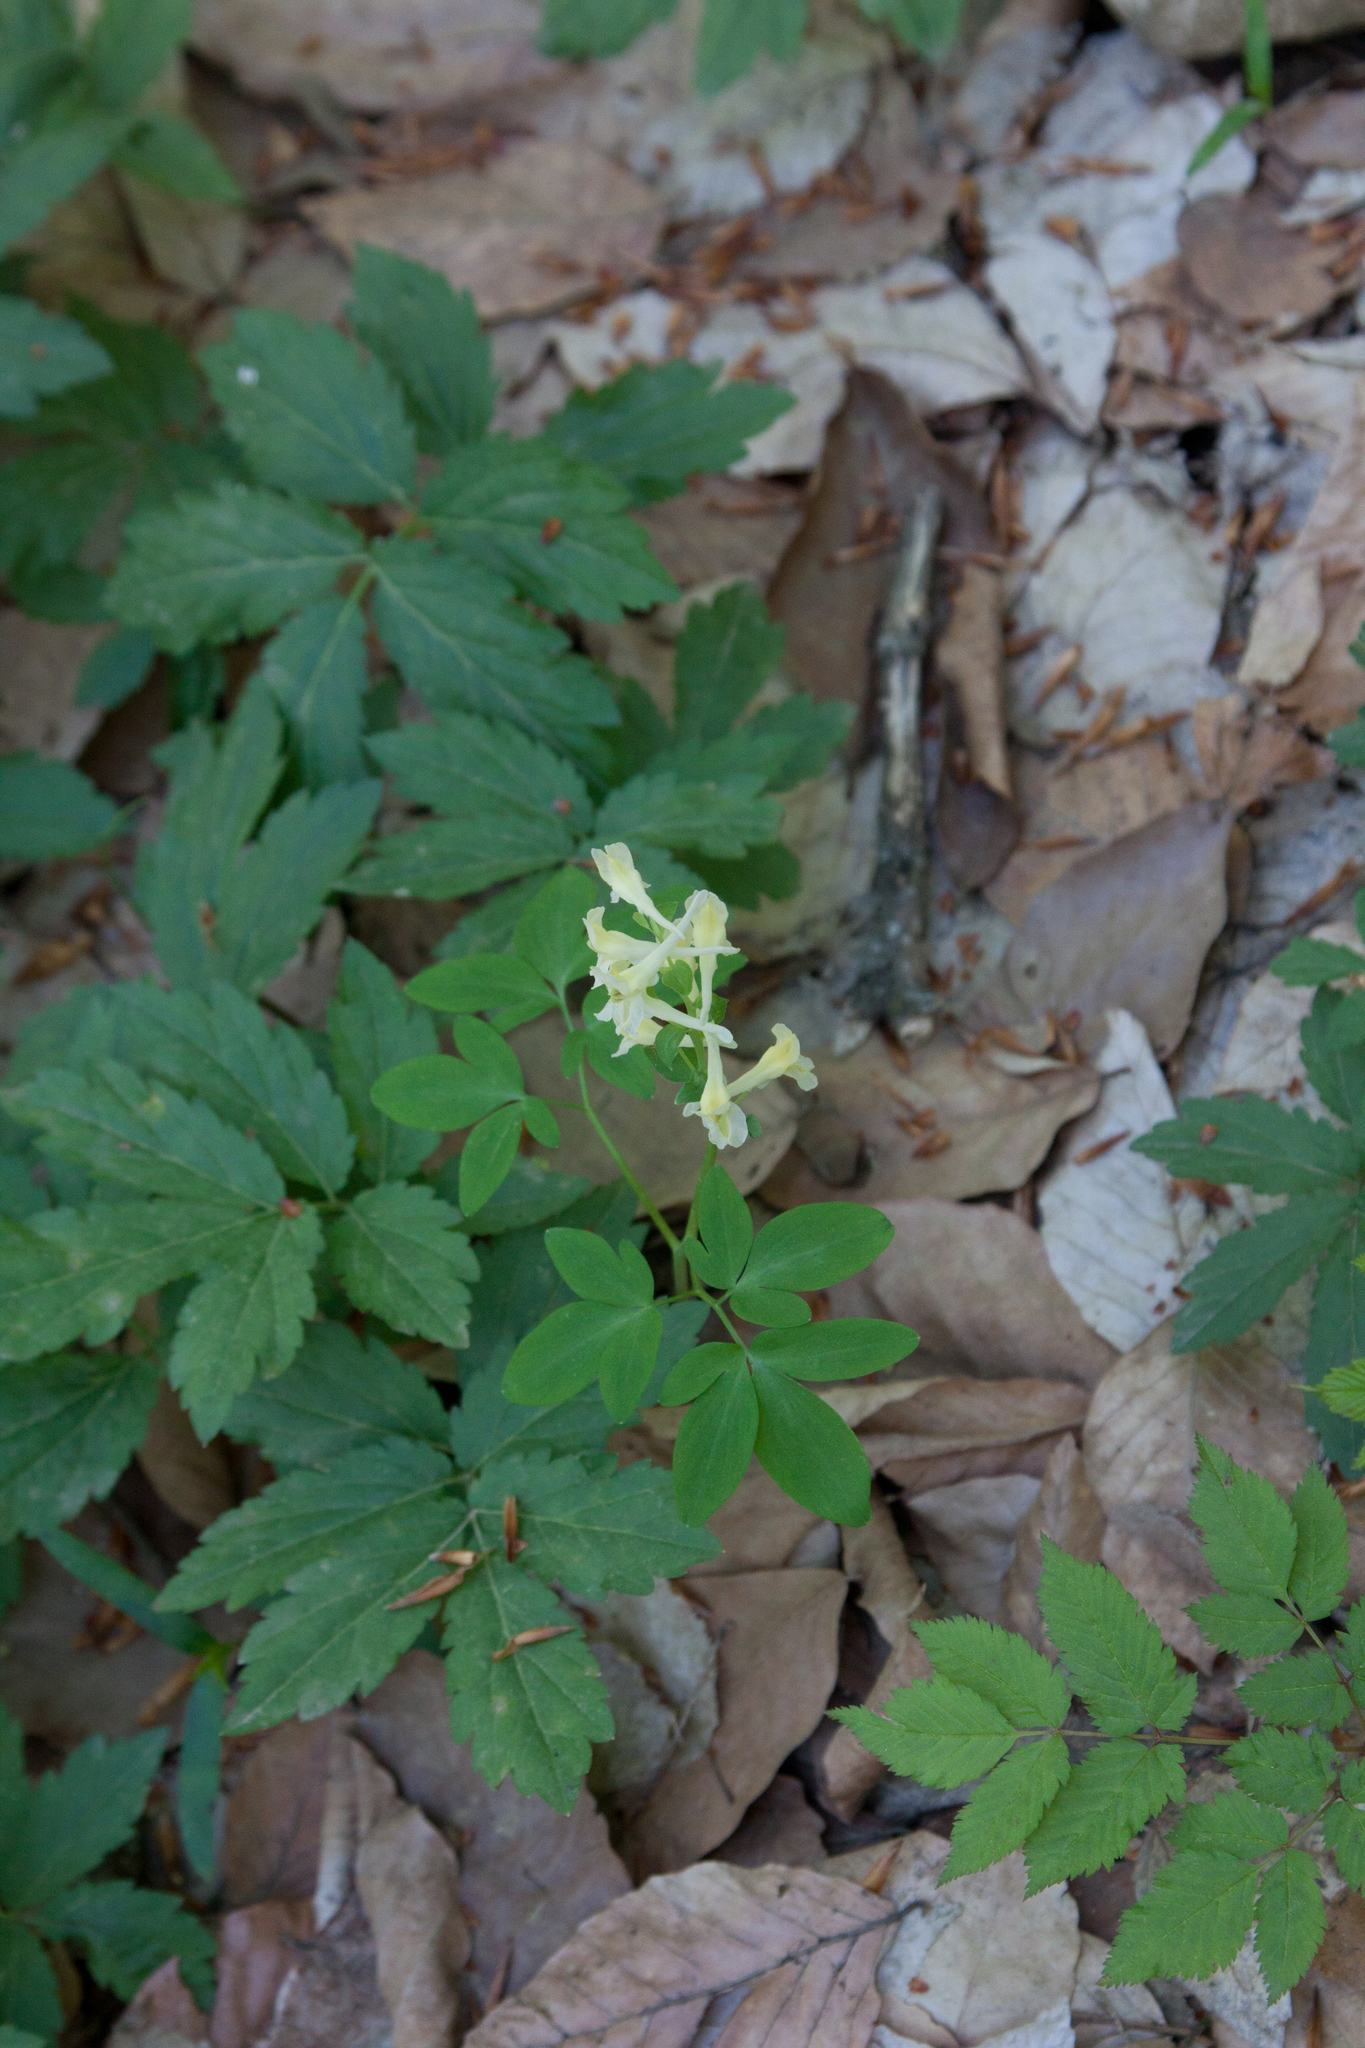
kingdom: Plantae
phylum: Tracheophyta
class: Magnoliopsida
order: Ranunculales
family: Papaveraceae
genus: Corydalis
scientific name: Corydalis cava
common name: Hollowroot
